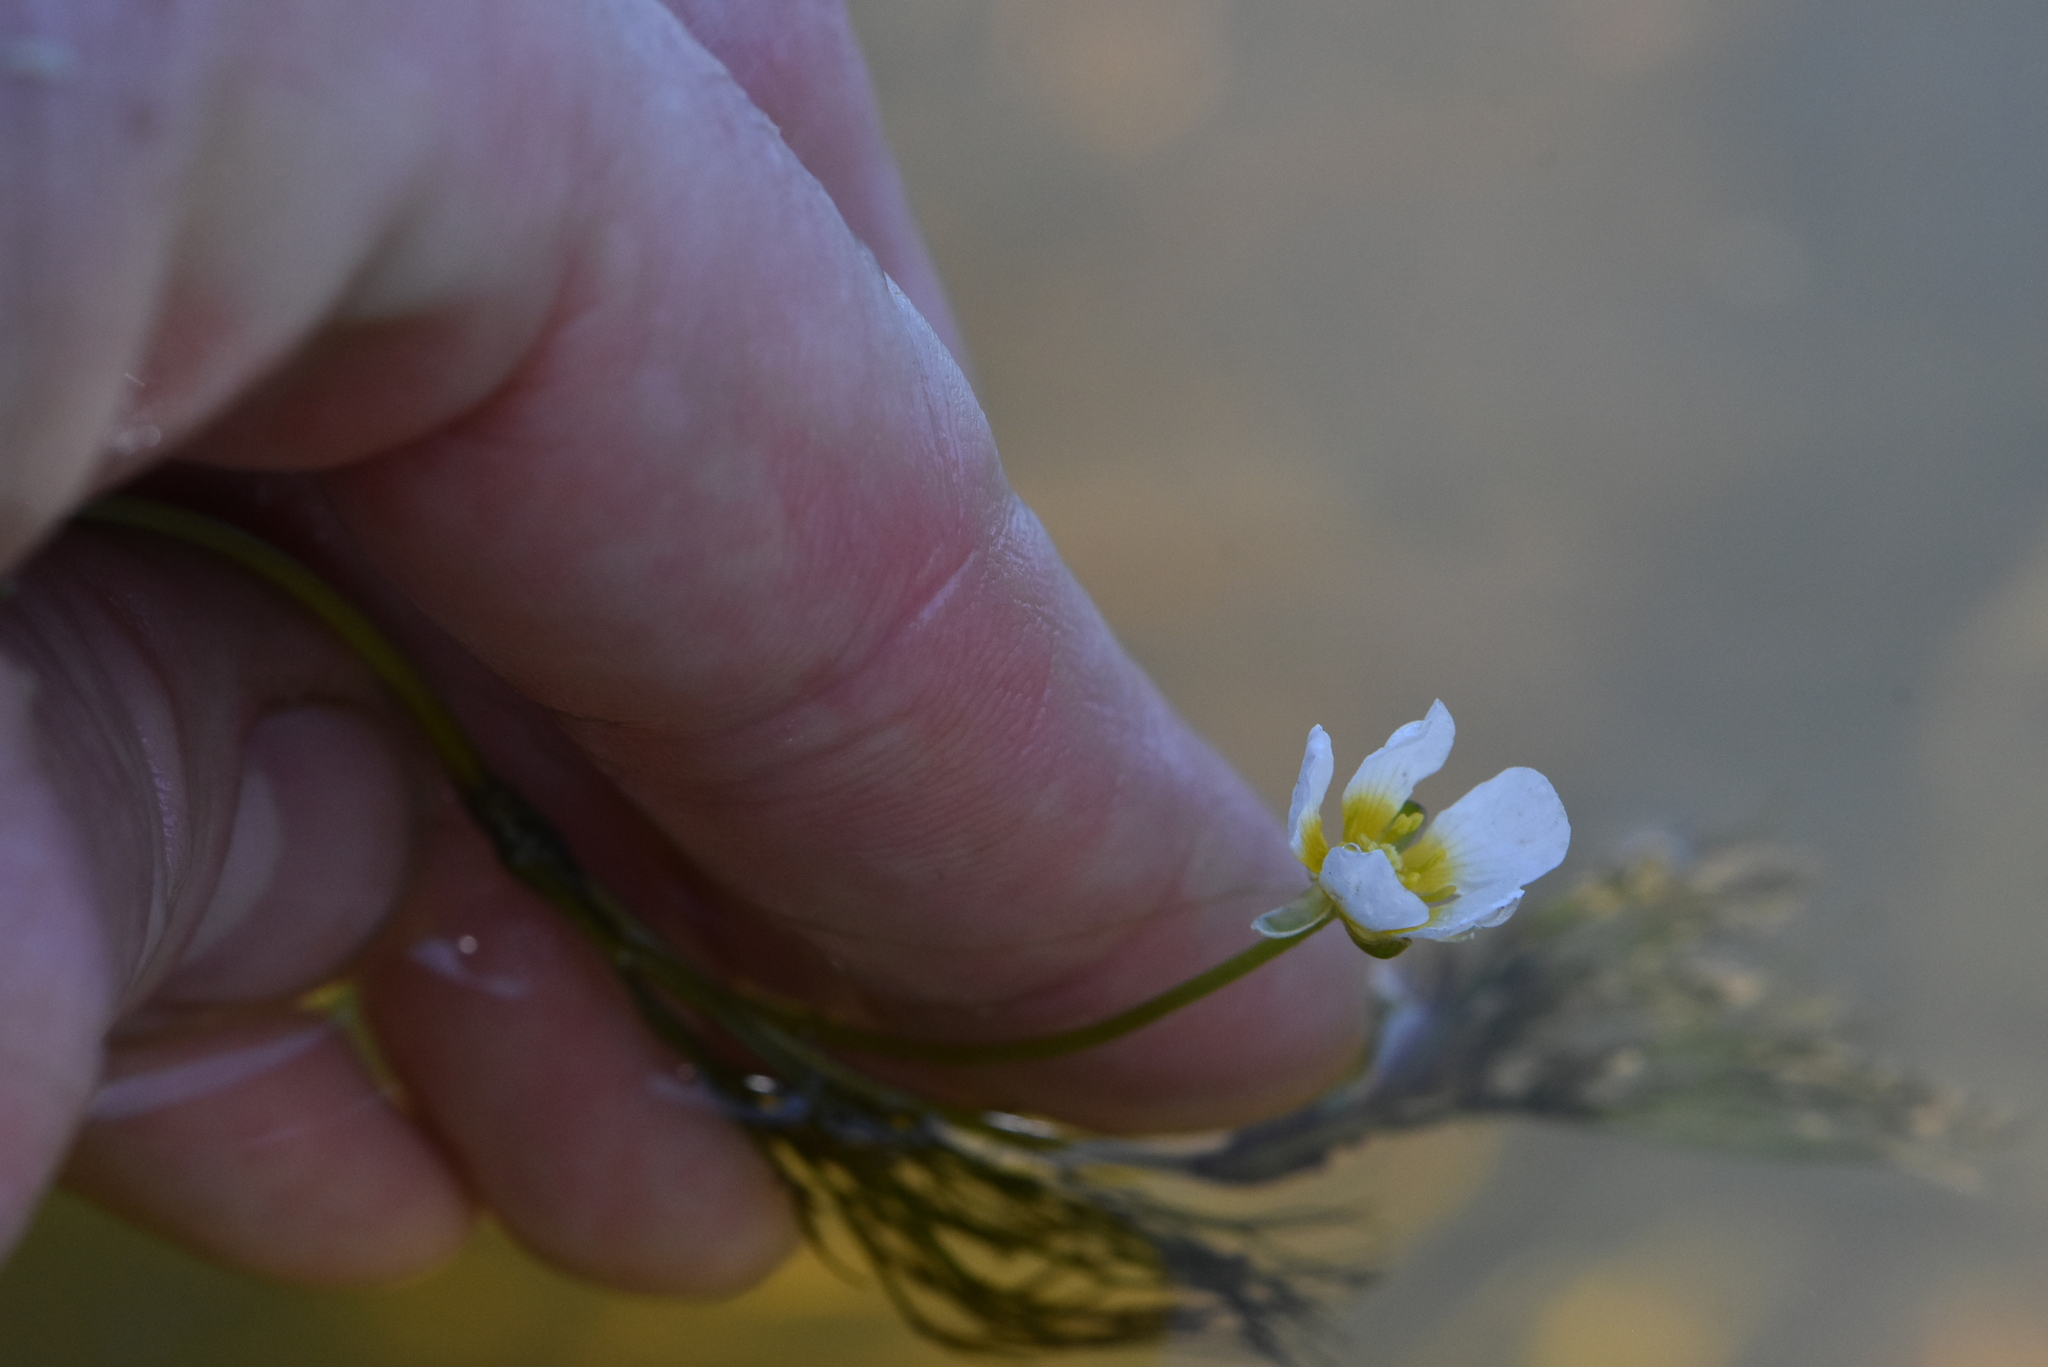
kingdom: Plantae
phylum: Tracheophyta
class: Magnoliopsida
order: Ranunculales
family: Ranunculaceae
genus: Ranunculus
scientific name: Ranunculus kauffmanii
